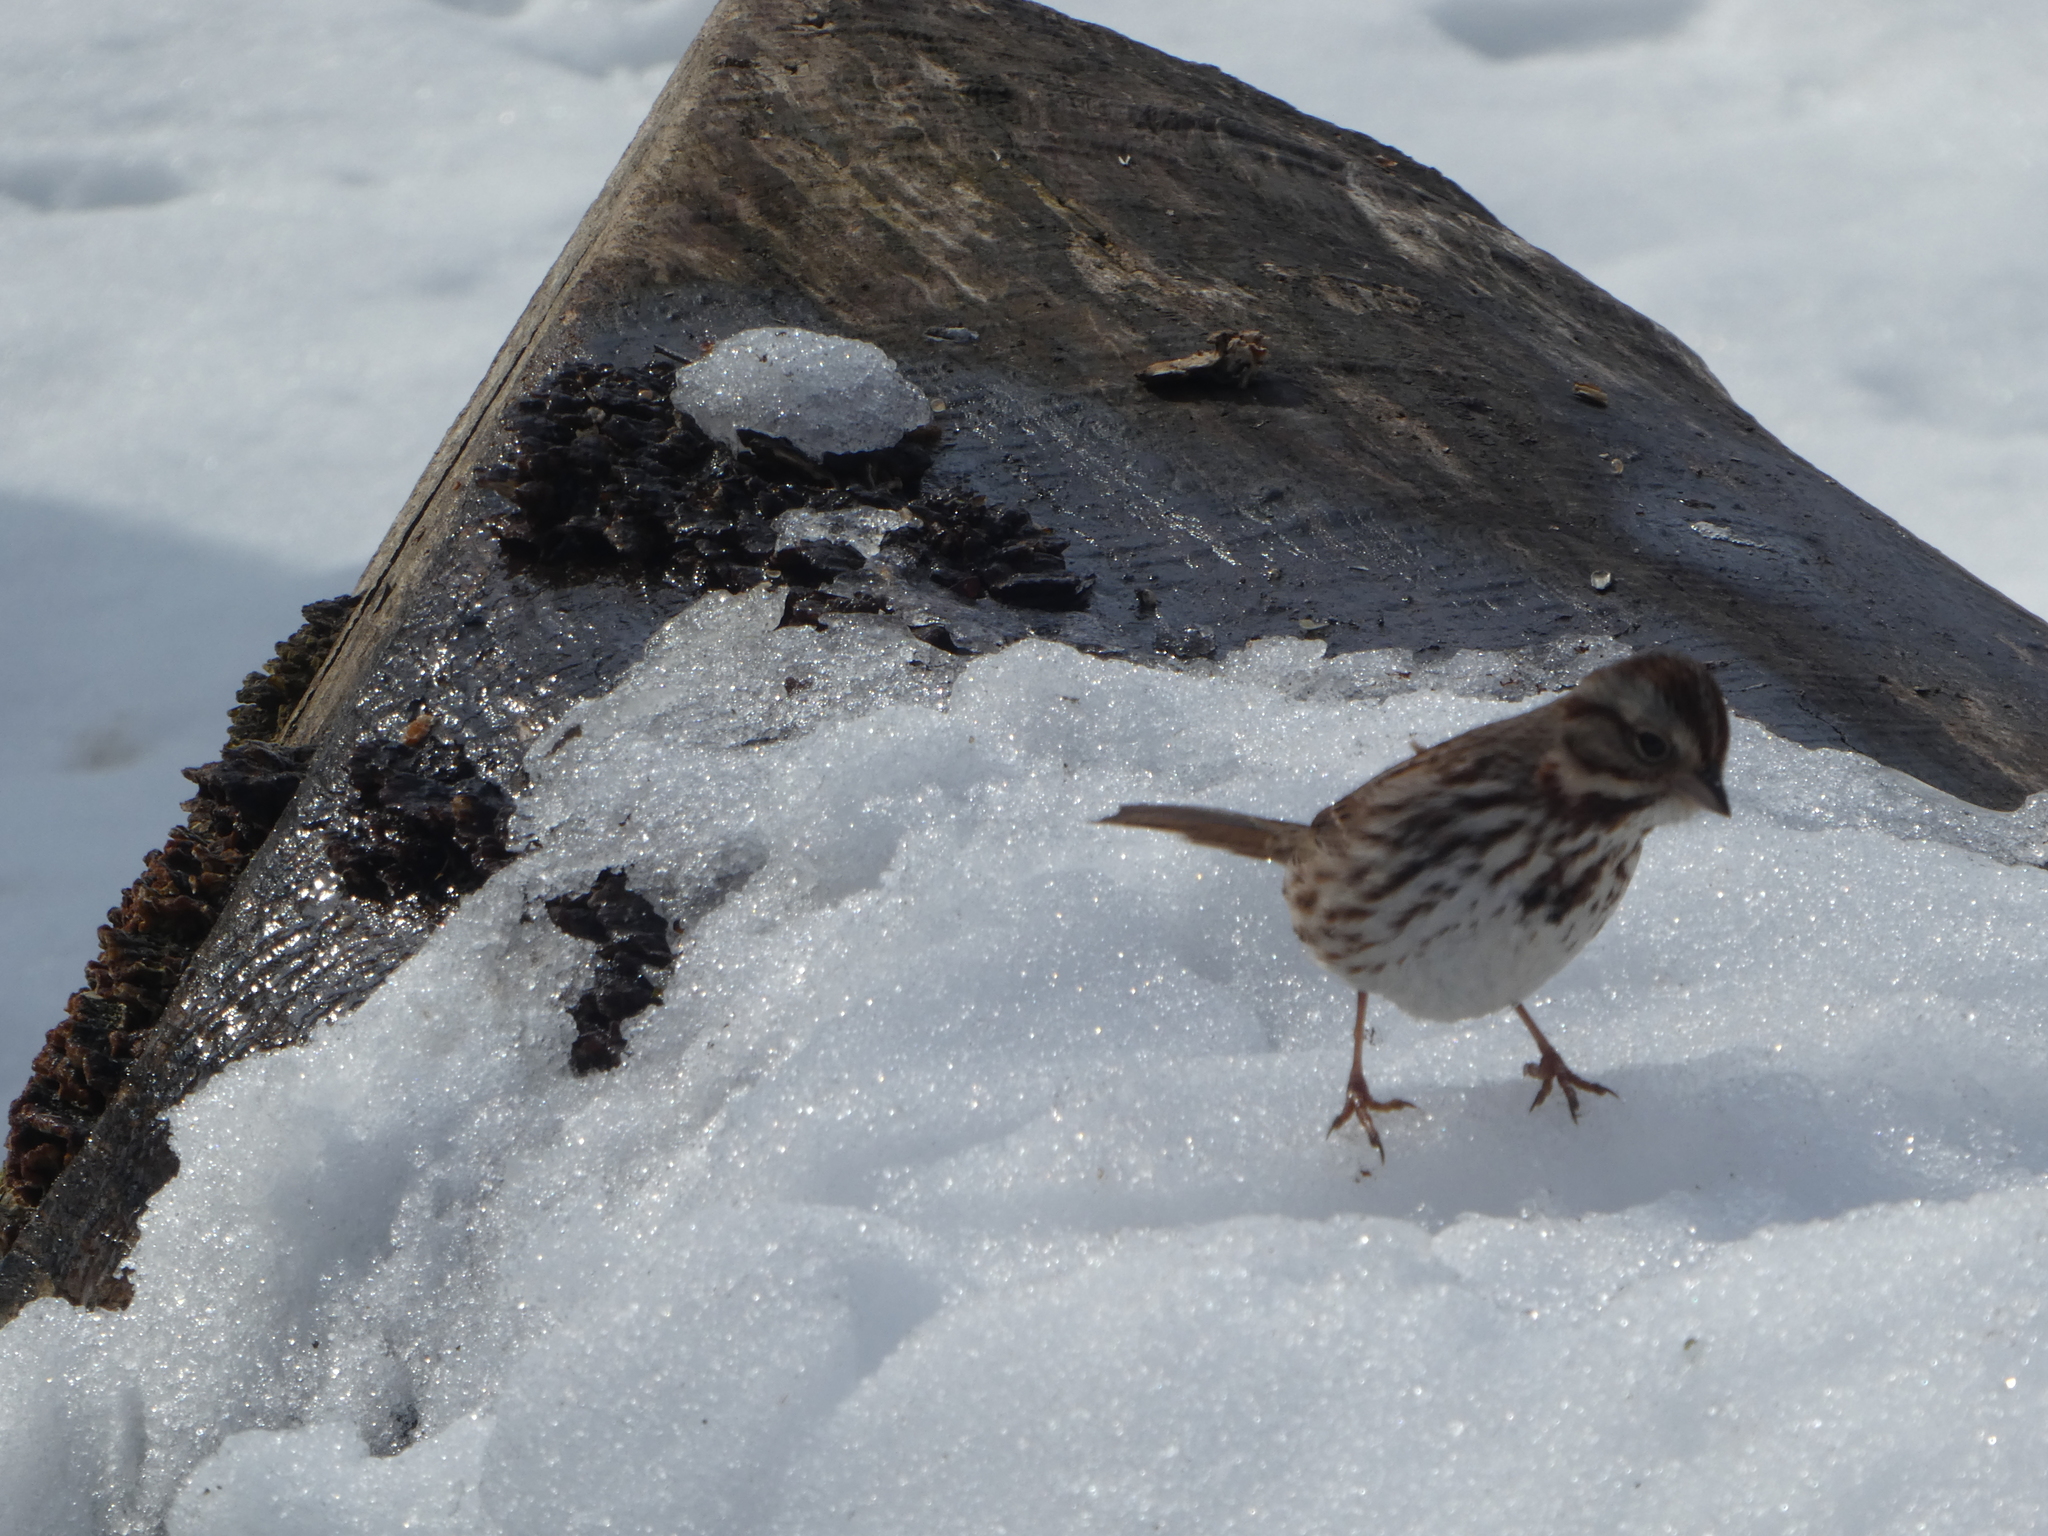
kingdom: Animalia
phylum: Chordata
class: Aves
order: Passeriformes
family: Passerellidae
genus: Melospiza
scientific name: Melospiza melodia
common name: Song sparrow
